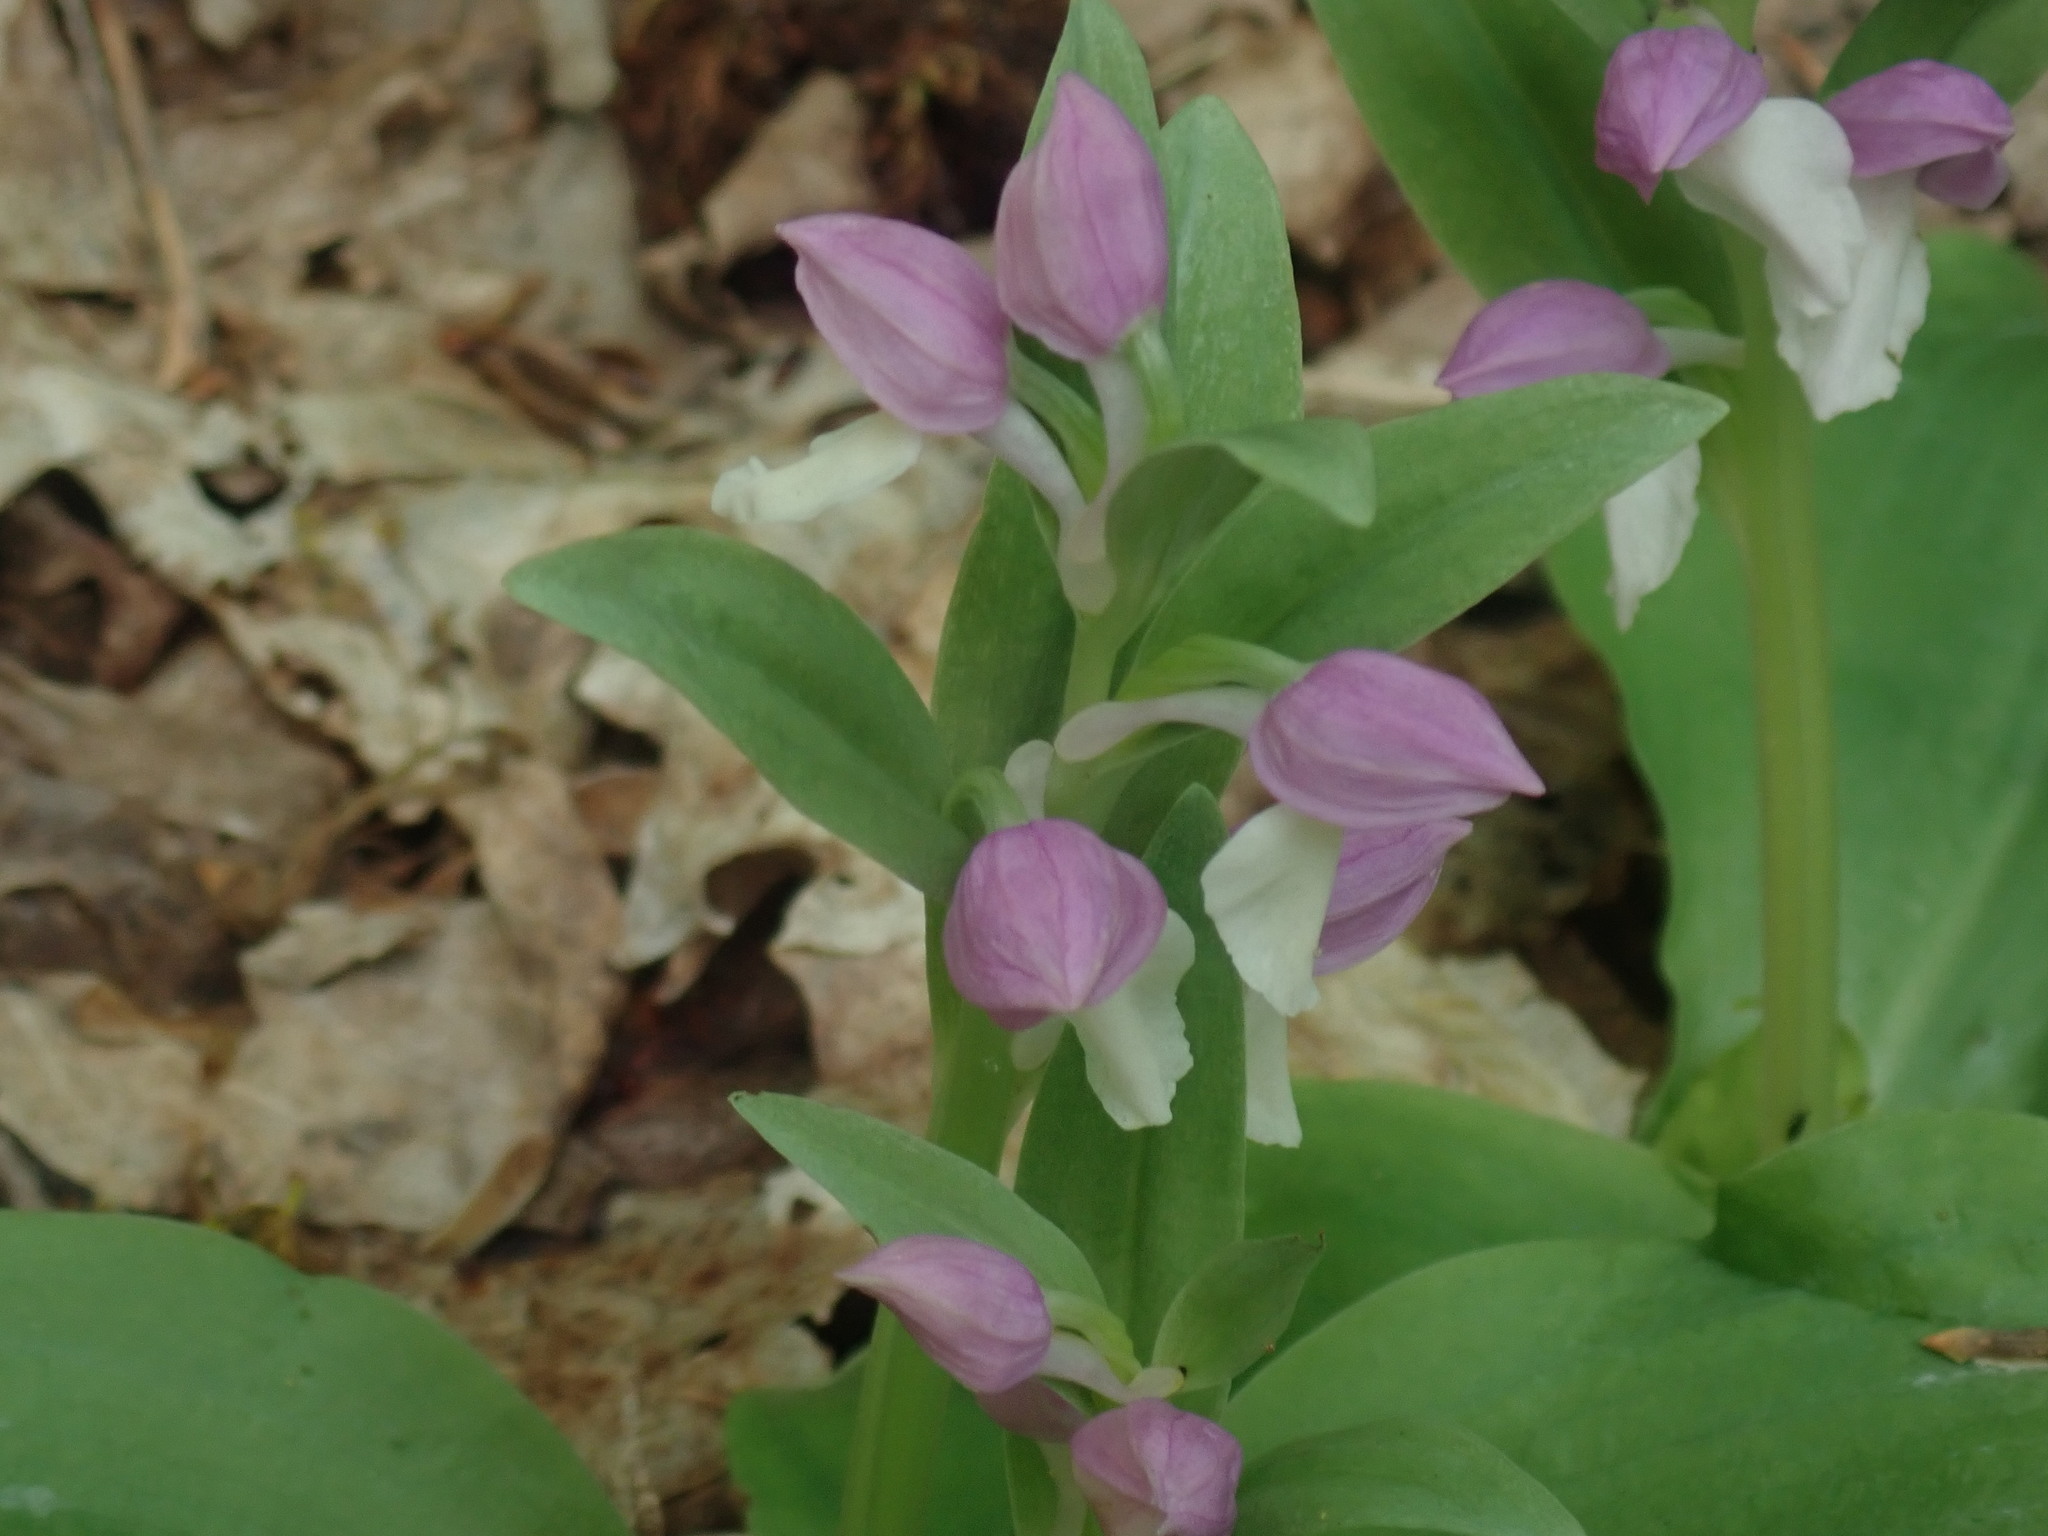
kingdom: Plantae
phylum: Tracheophyta
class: Liliopsida
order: Asparagales
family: Orchidaceae
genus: Galearis
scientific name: Galearis spectabilis
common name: Purple-hooded orchis
